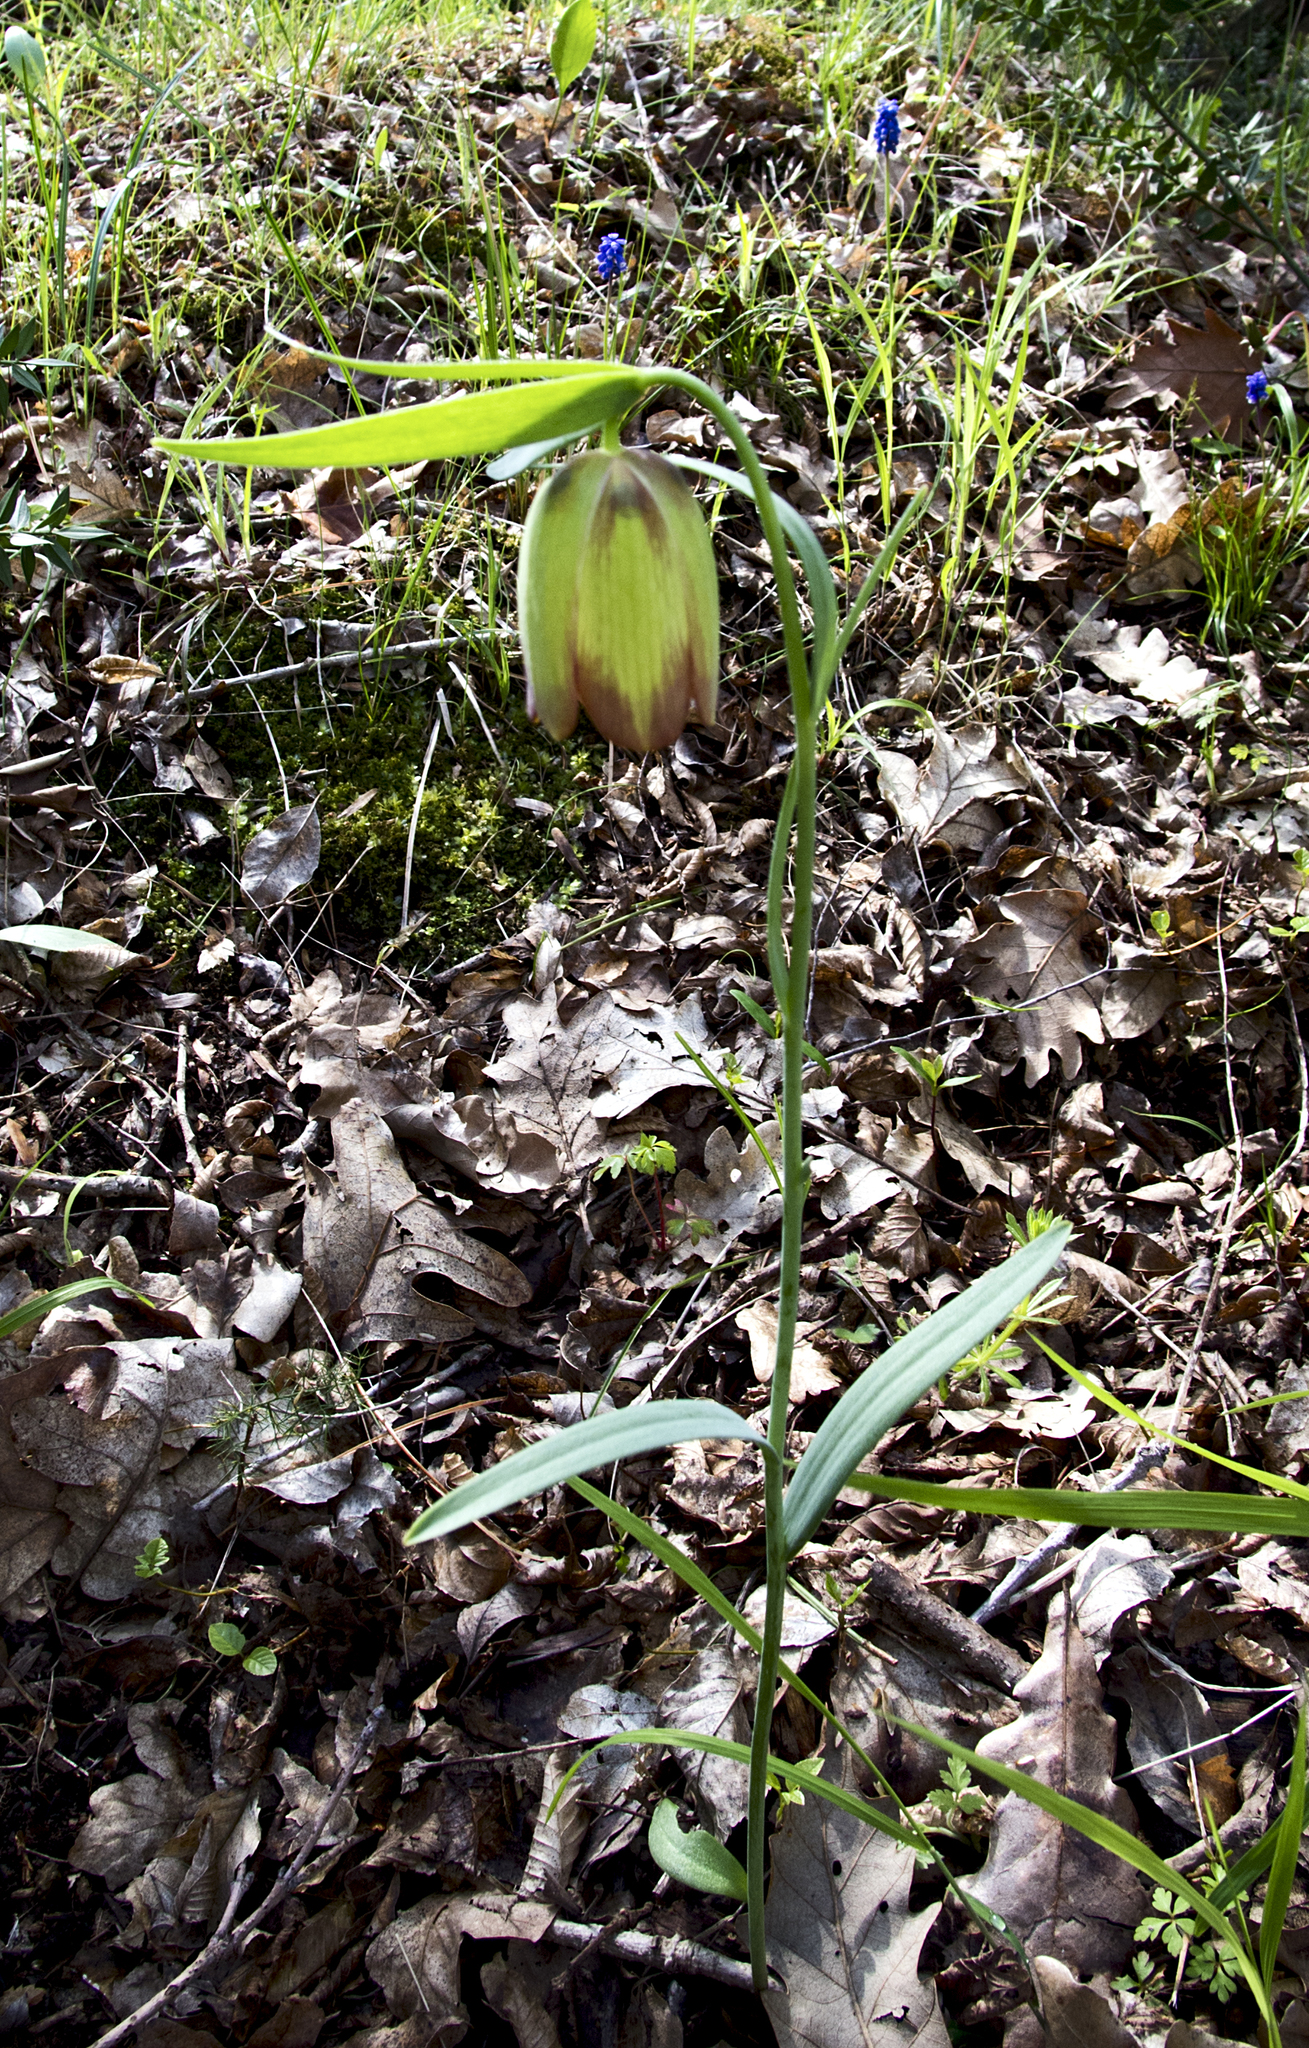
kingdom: Plantae
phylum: Tracheophyta
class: Liliopsida
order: Liliales
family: Liliaceae
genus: Fritillaria
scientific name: Fritillaria pontica
